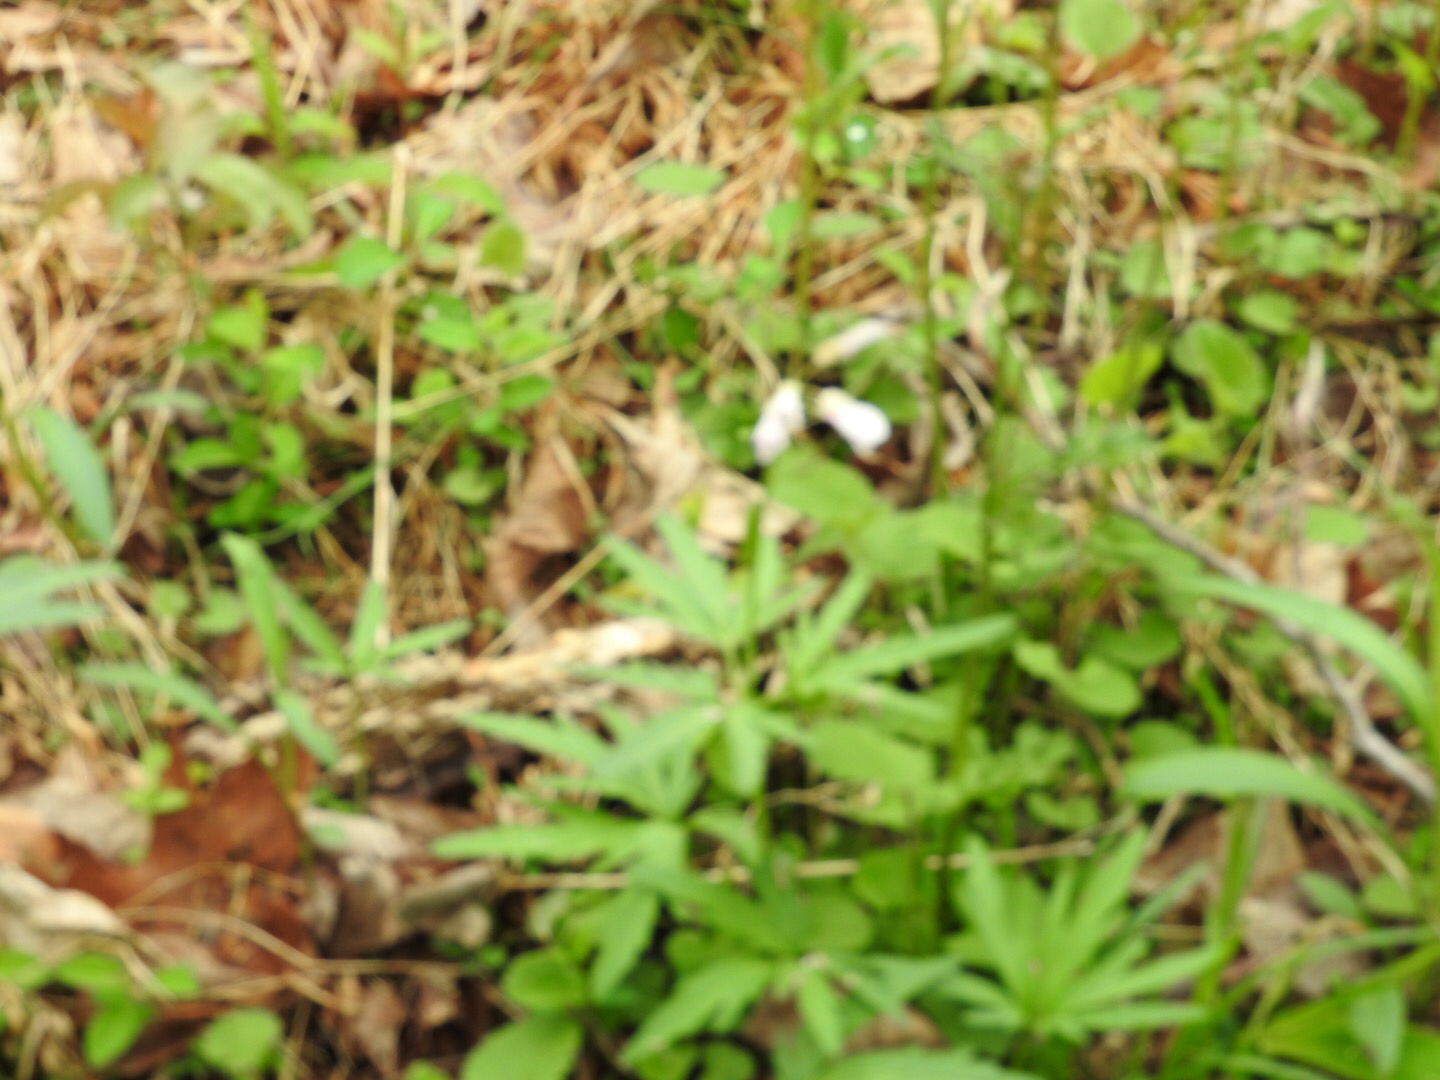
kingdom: Plantae
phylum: Tracheophyta
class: Magnoliopsida
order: Brassicales
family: Brassicaceae
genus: Cardamine
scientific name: Cardamine concatenata
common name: Cut-leaf toothcup
